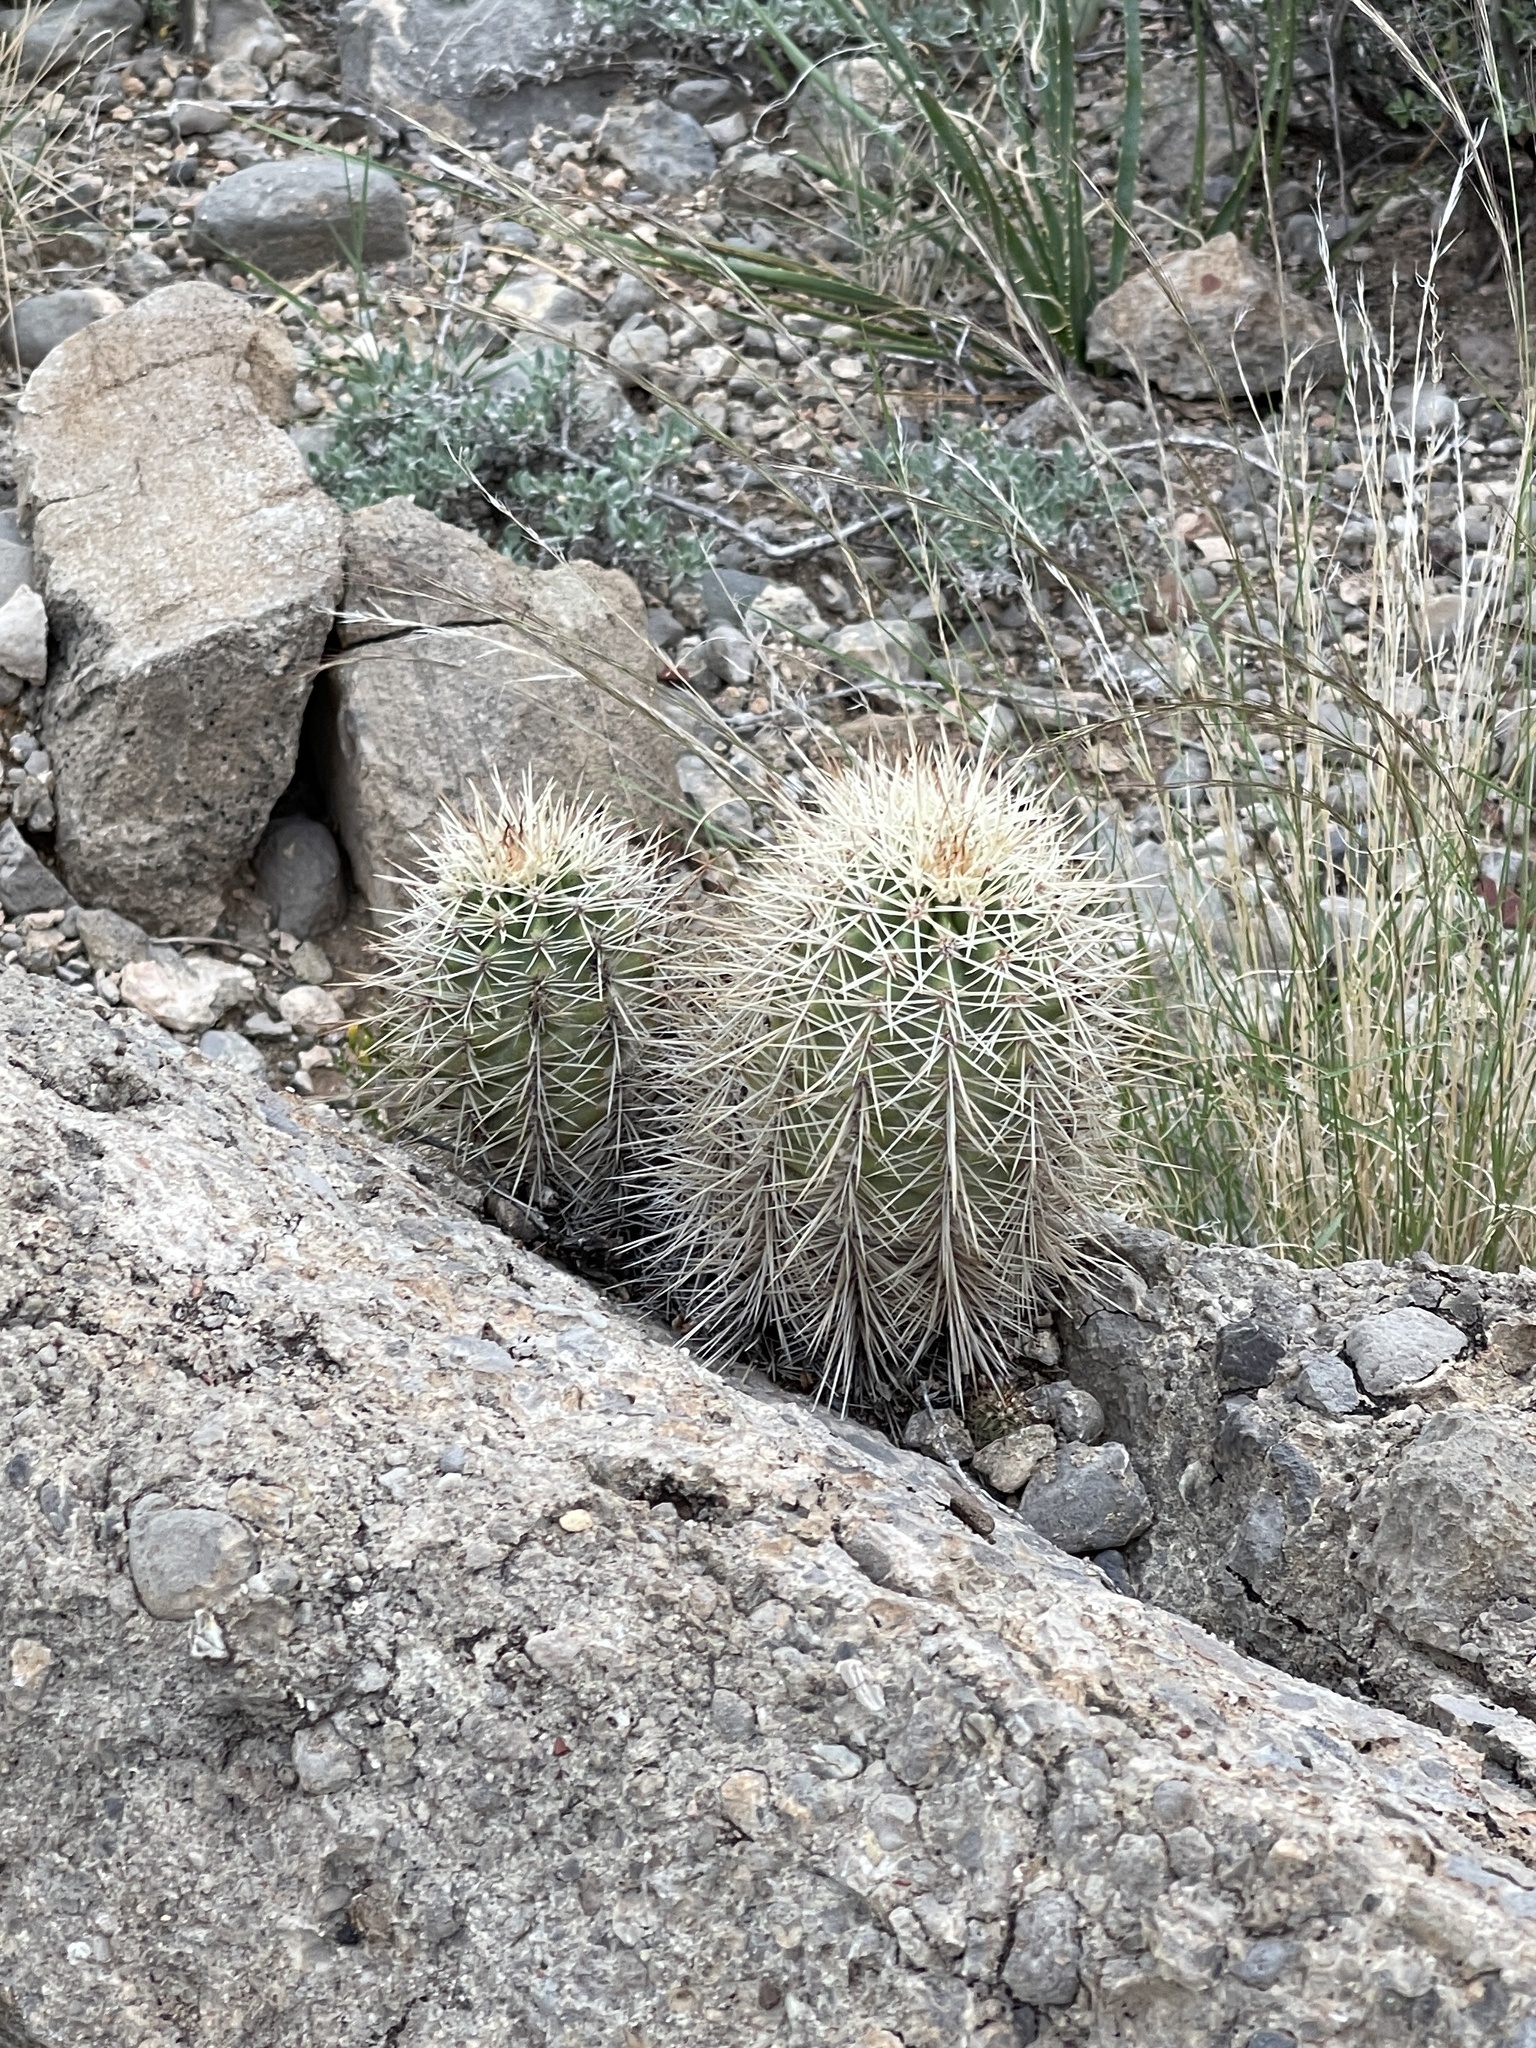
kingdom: Plantae
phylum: Tracheophyta
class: Magnoliopsida
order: Caryophyllales
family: Cactaceae
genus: Echinocereus
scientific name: Echinocereus coccineus
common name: Scarlet hedgehog cactus
